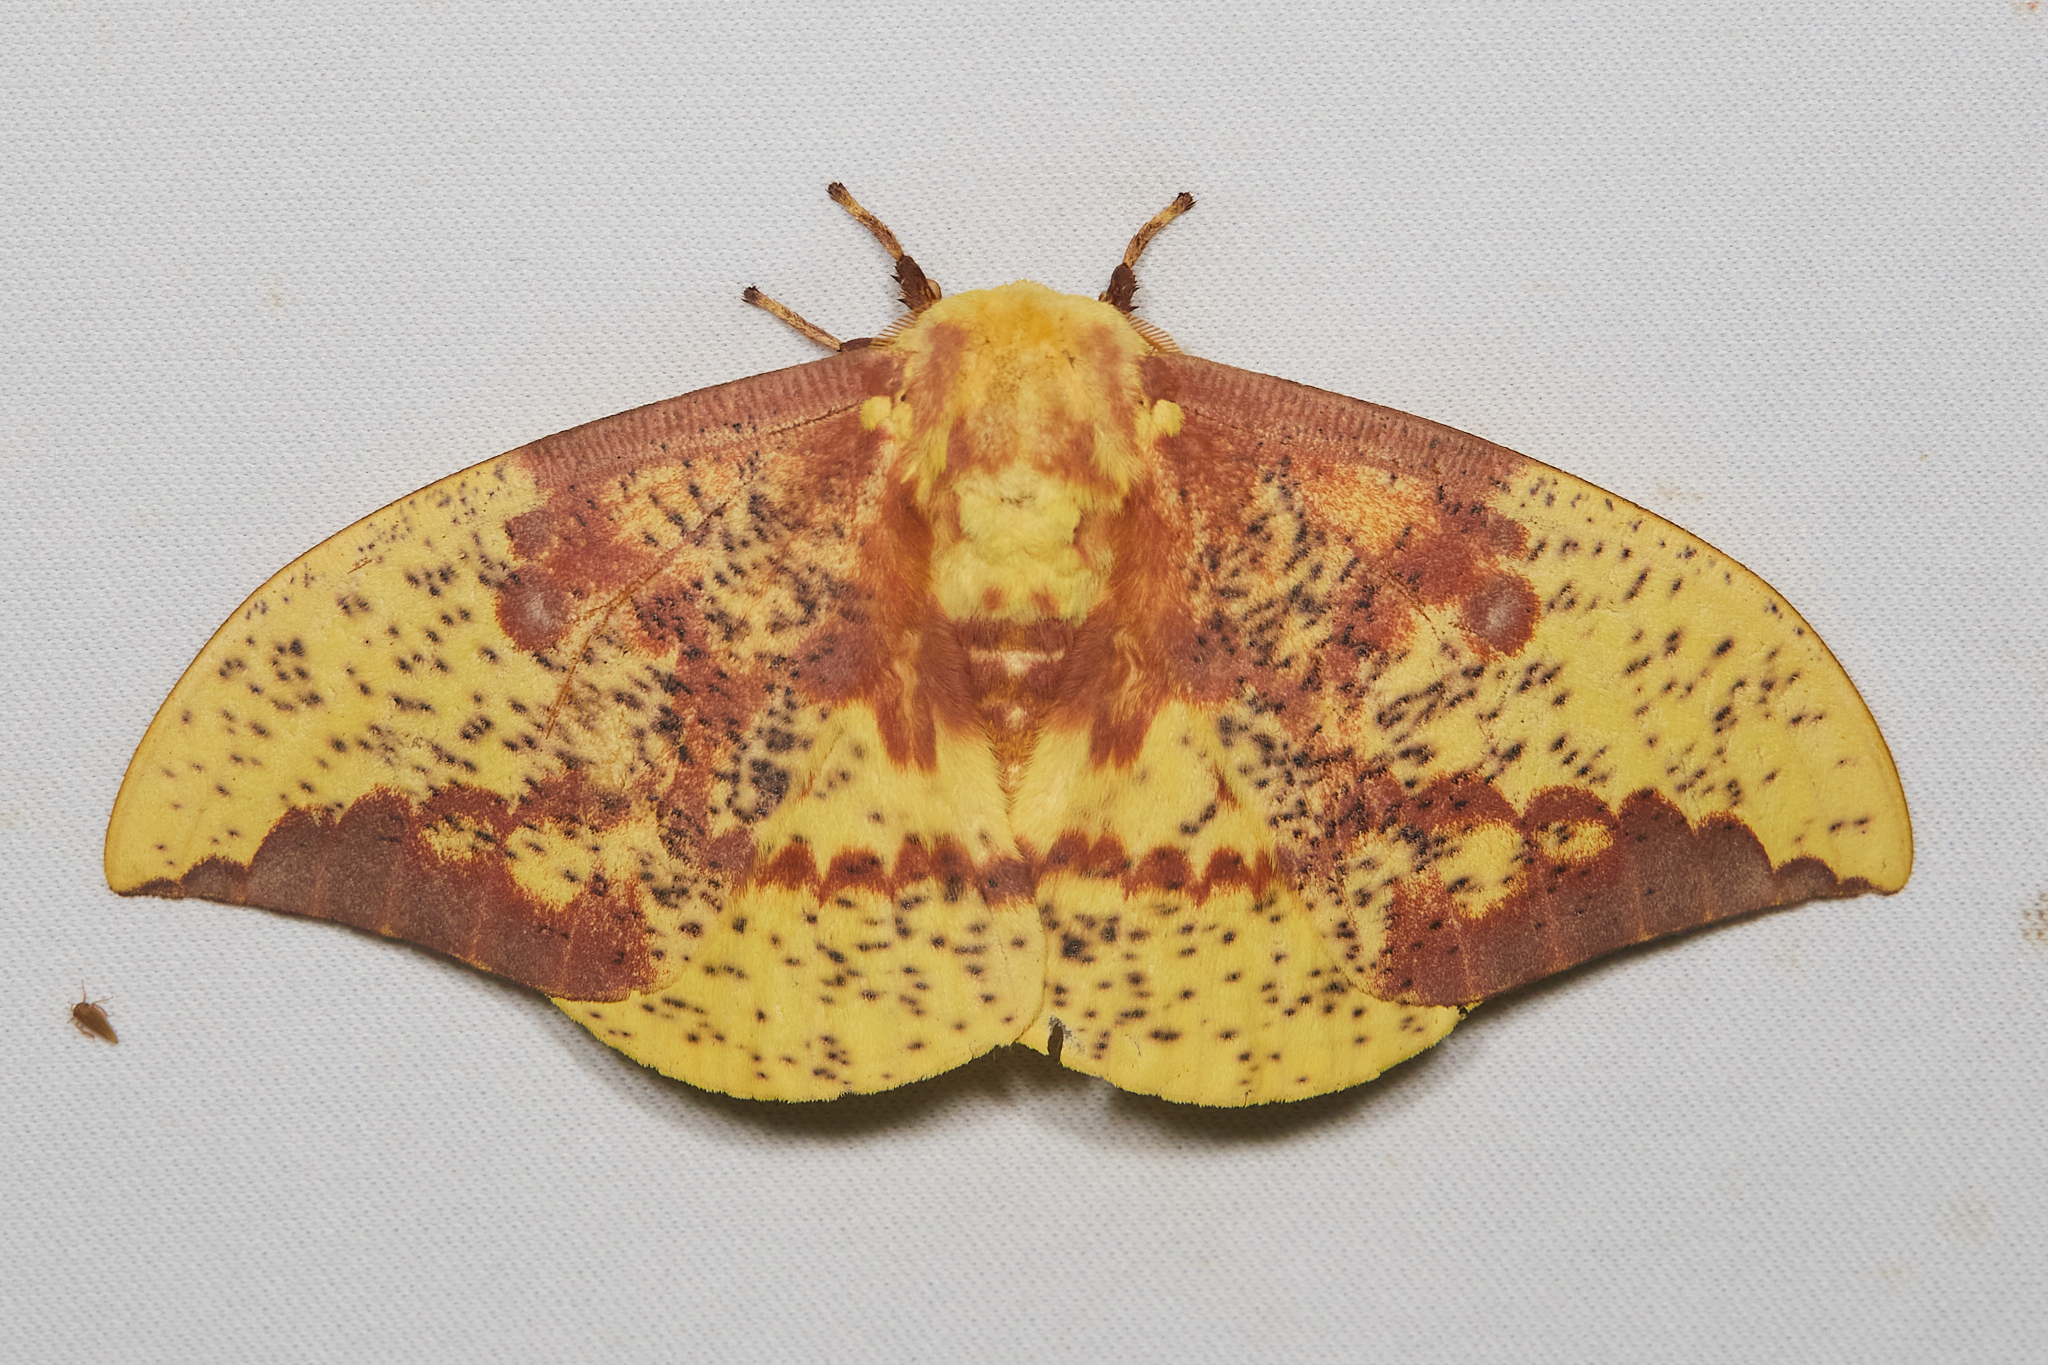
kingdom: Animalia
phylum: Arthropoda
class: Insecta
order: Lepidoptera
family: Saturniidae
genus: Eacles
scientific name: Eacles imperialis
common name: Imperial moth
